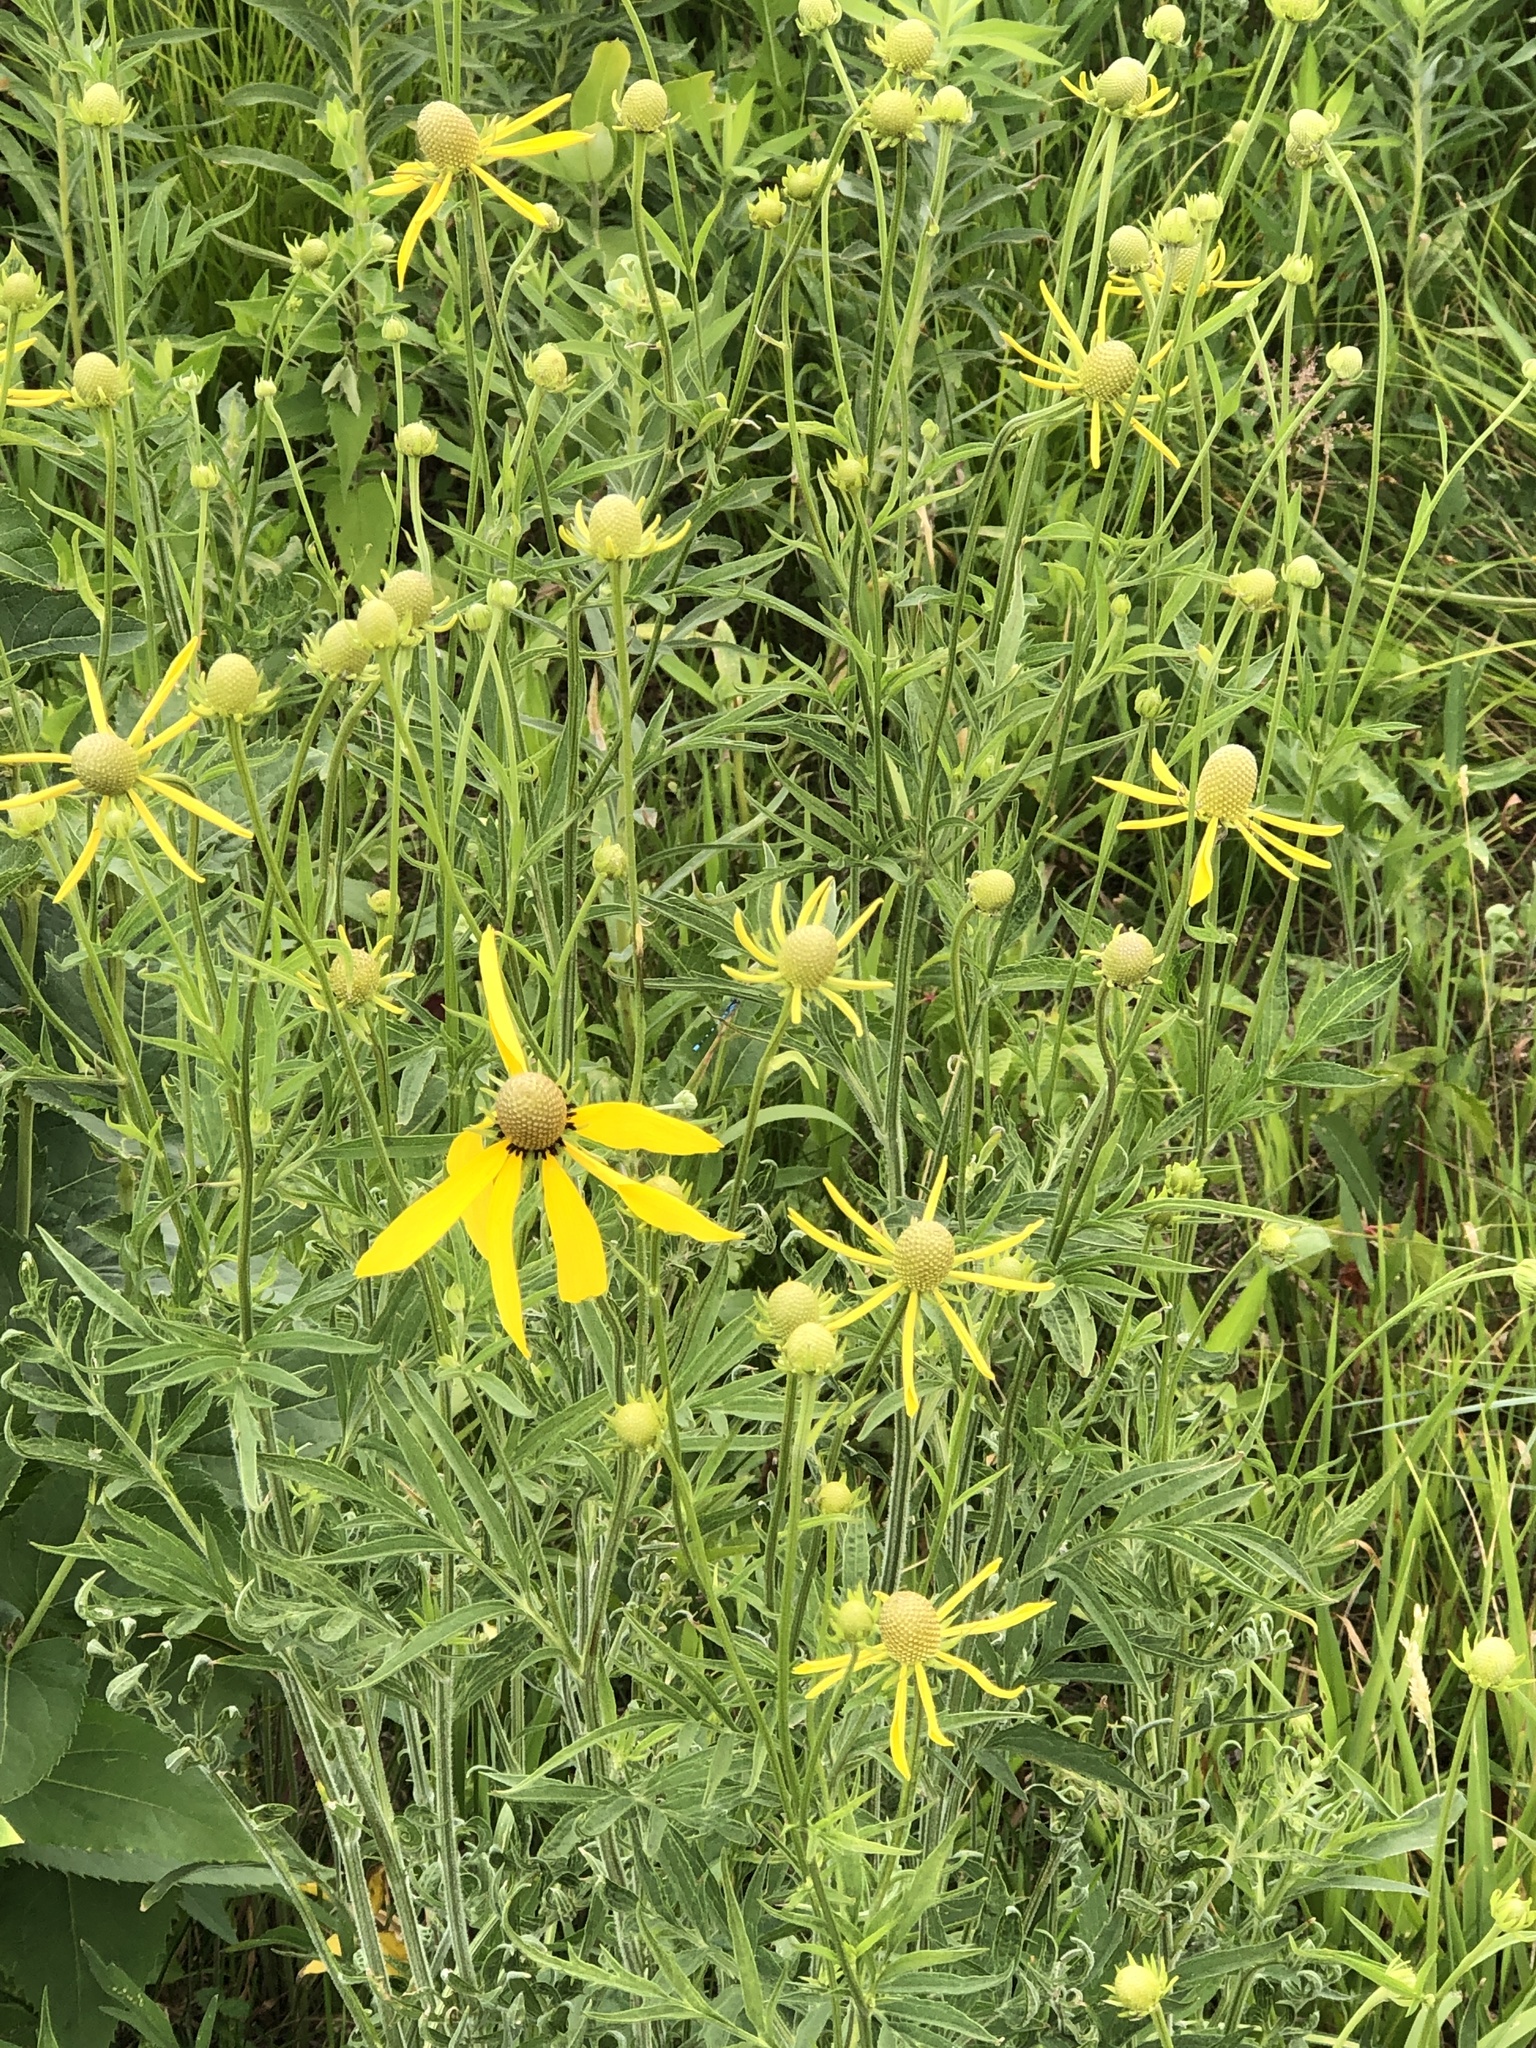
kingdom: Plantae
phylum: Tracheophyta
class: Magnoliopsida
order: Asterales
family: Asteraceae
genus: Ratibida
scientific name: Ratibida pinnata
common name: Drooping prairie-coneflower
